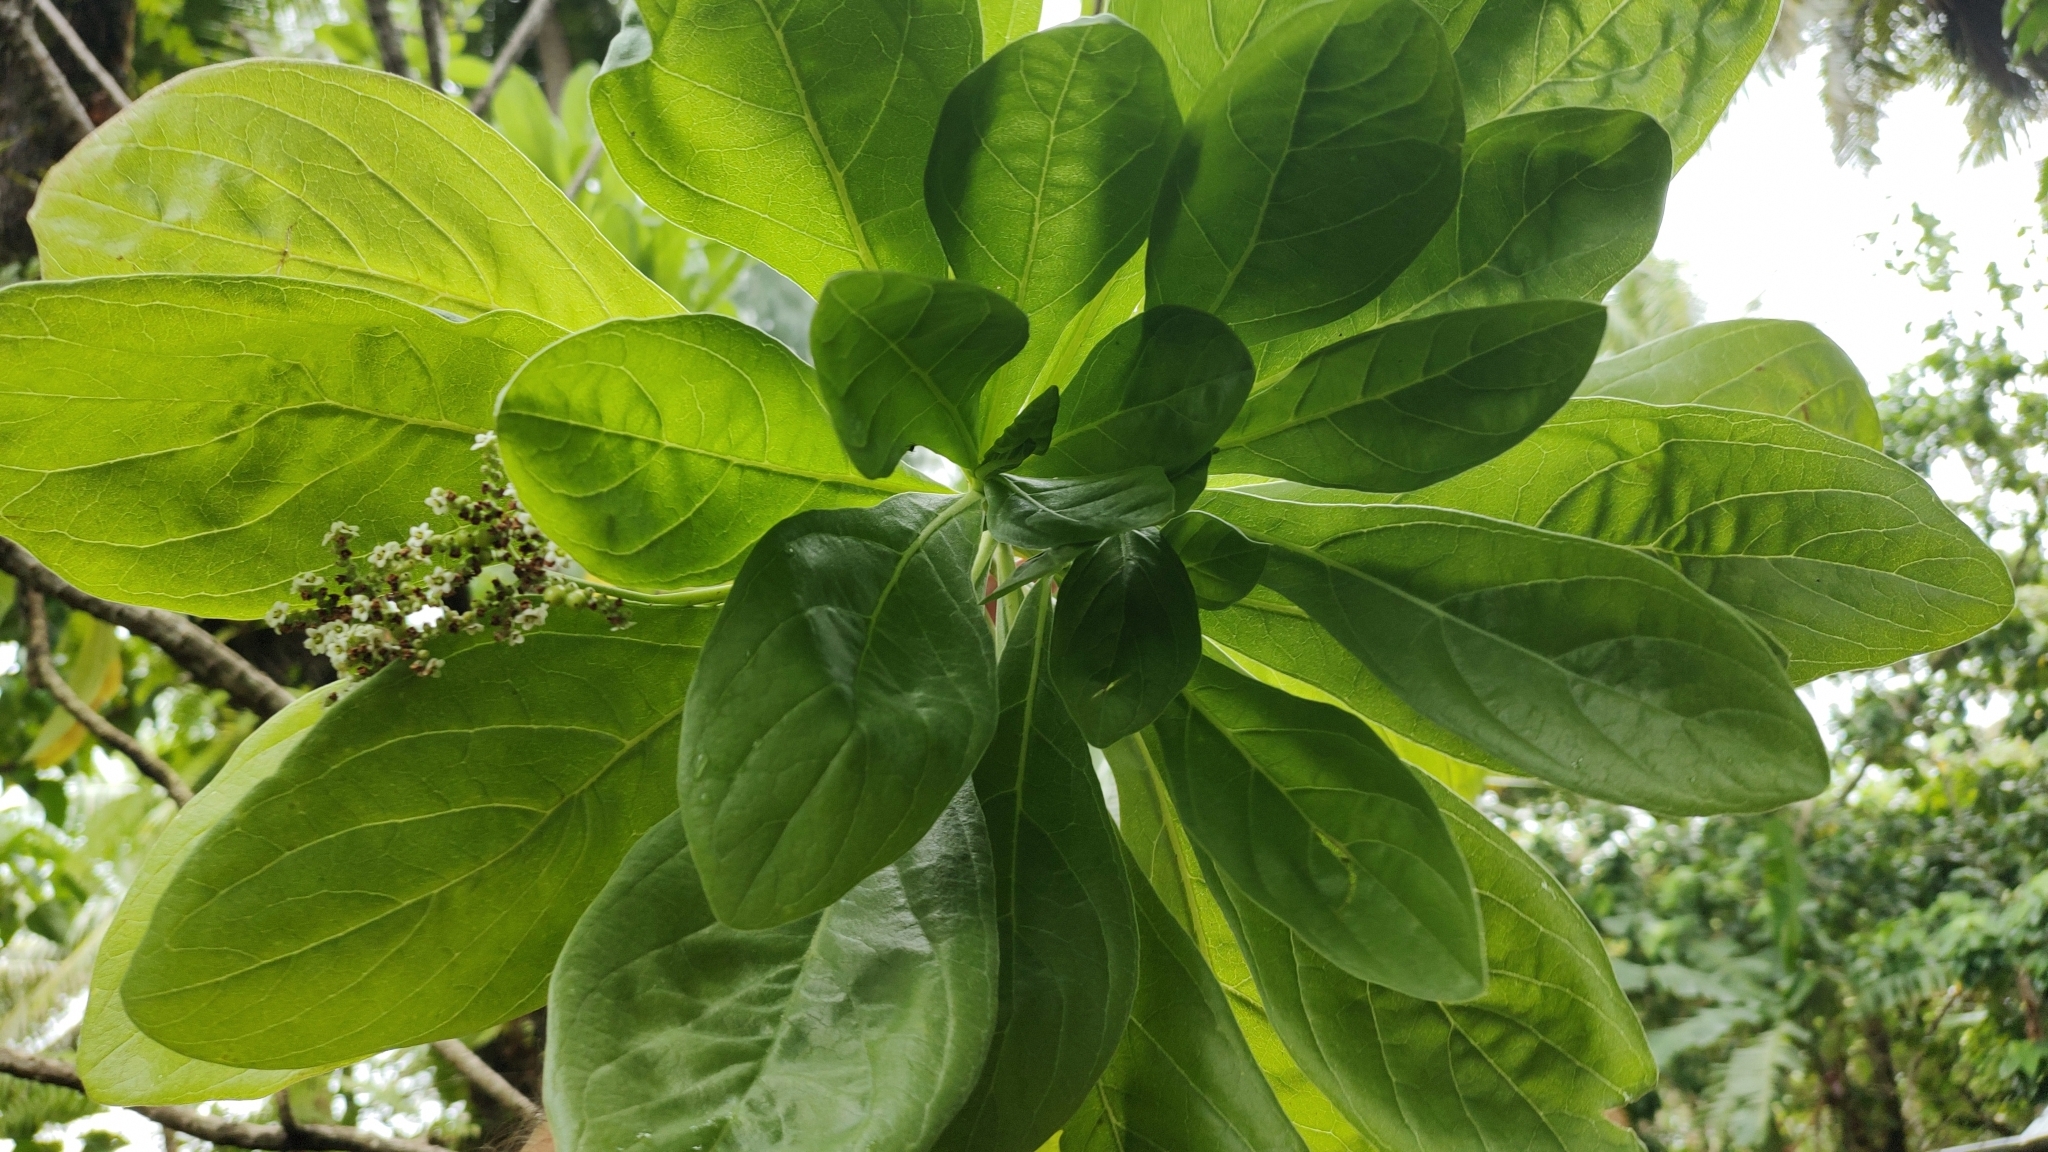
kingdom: Plantae
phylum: Tracheophyta
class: Magnoliopsida
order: Boraginales
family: Heliotropiaceae
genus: Heliotropium
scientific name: Heliotropium velutinum
